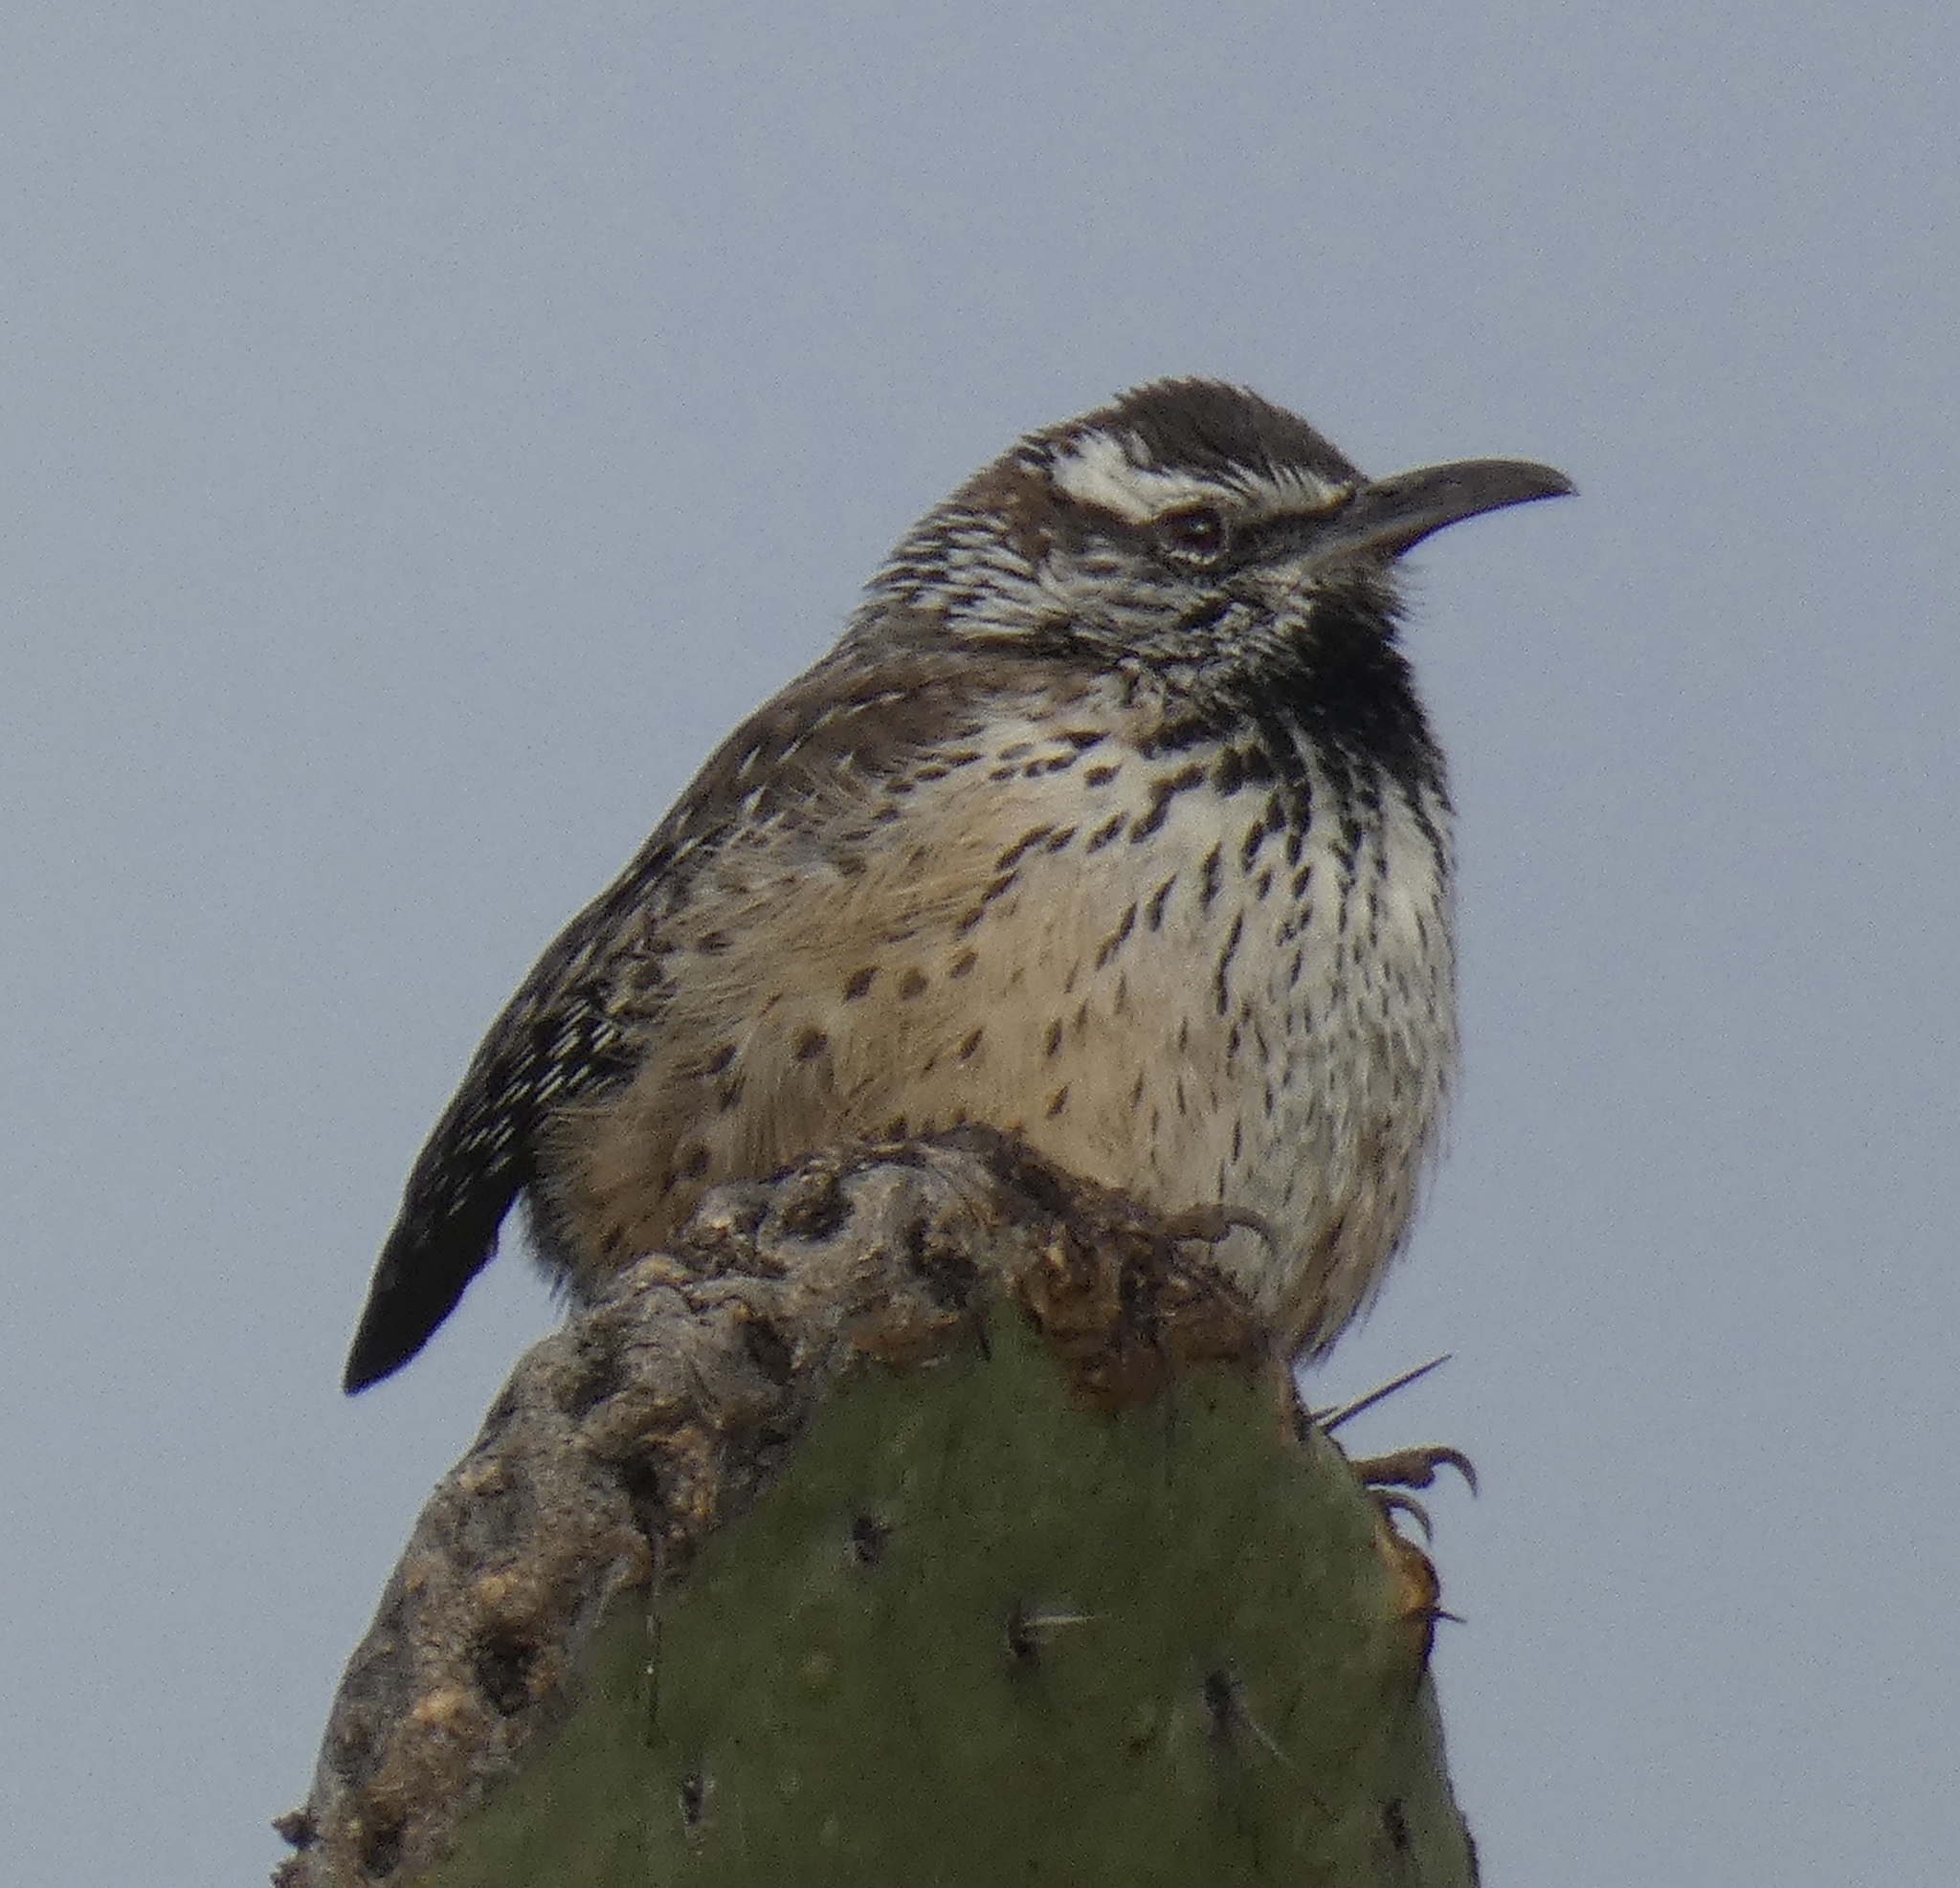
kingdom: Animalia
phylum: Chordata
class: Aves
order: Passeriformes
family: Troglodytidae
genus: Campylorhynchus
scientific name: Campylorhynchus brunneicapillus
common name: Cactus wren
